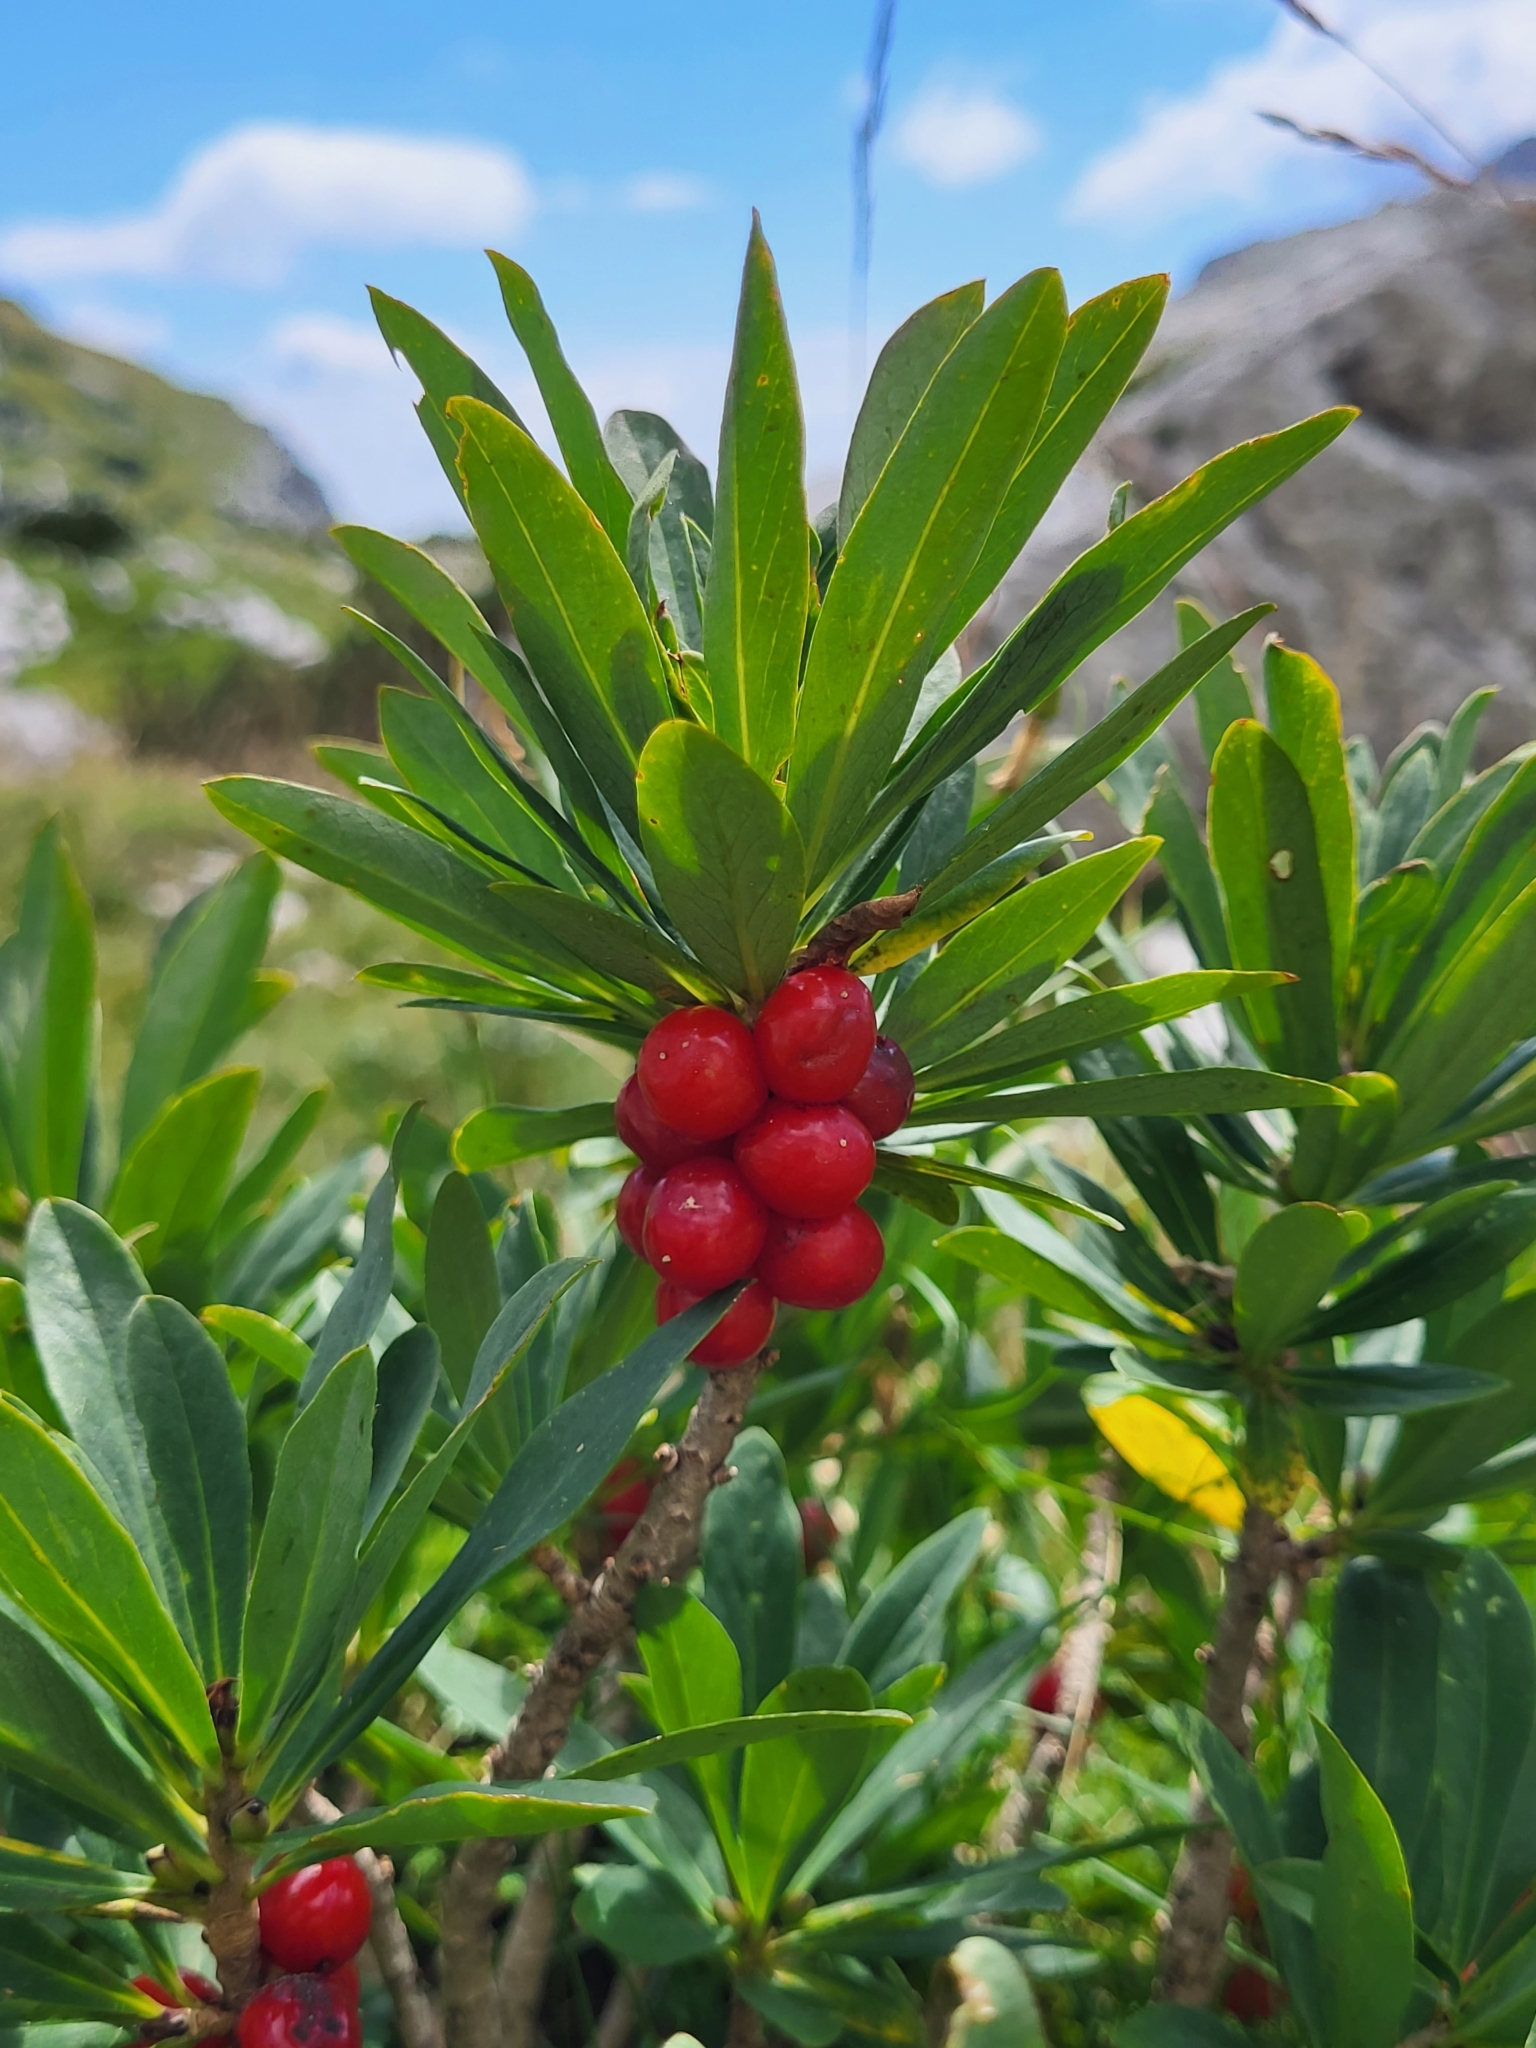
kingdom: Plantae
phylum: Tracheophyta
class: Magnoliopsida
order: Malvales
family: Thymelaeaceae
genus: Daphne
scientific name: Daphne mezereum
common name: Mezereon
